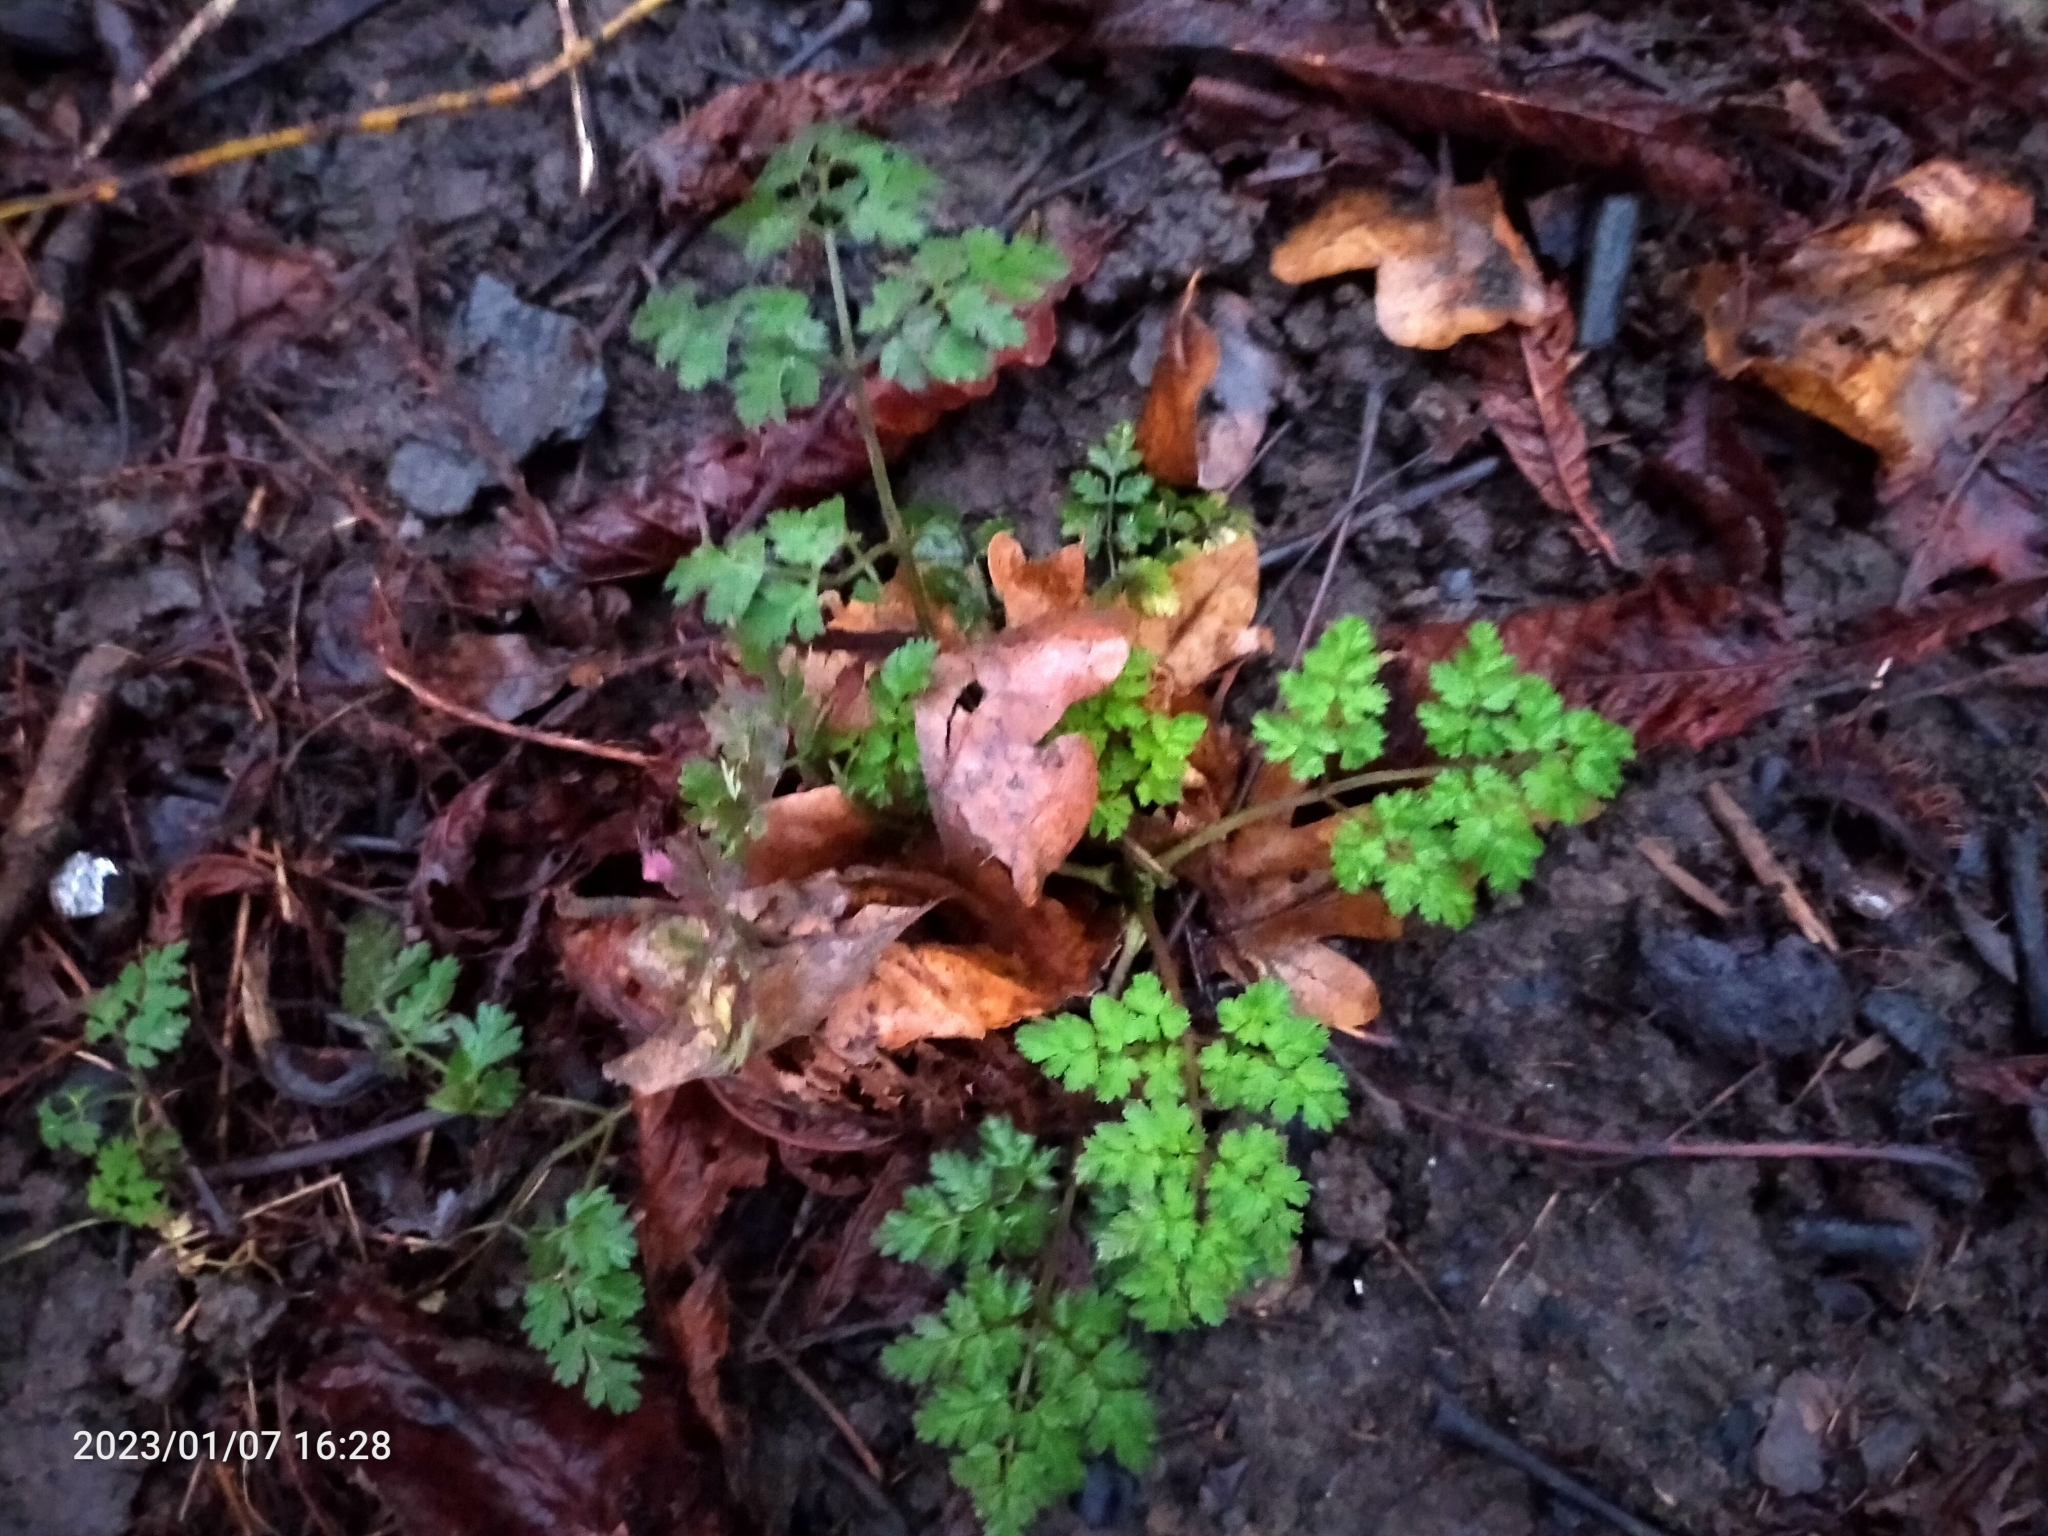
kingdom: Plantae
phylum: Tracheophyta
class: Magnoliopsida
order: Apiales
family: Apiaceae
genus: Anthriscus
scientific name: Anthriscus sylvestris
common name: Cow parsley
